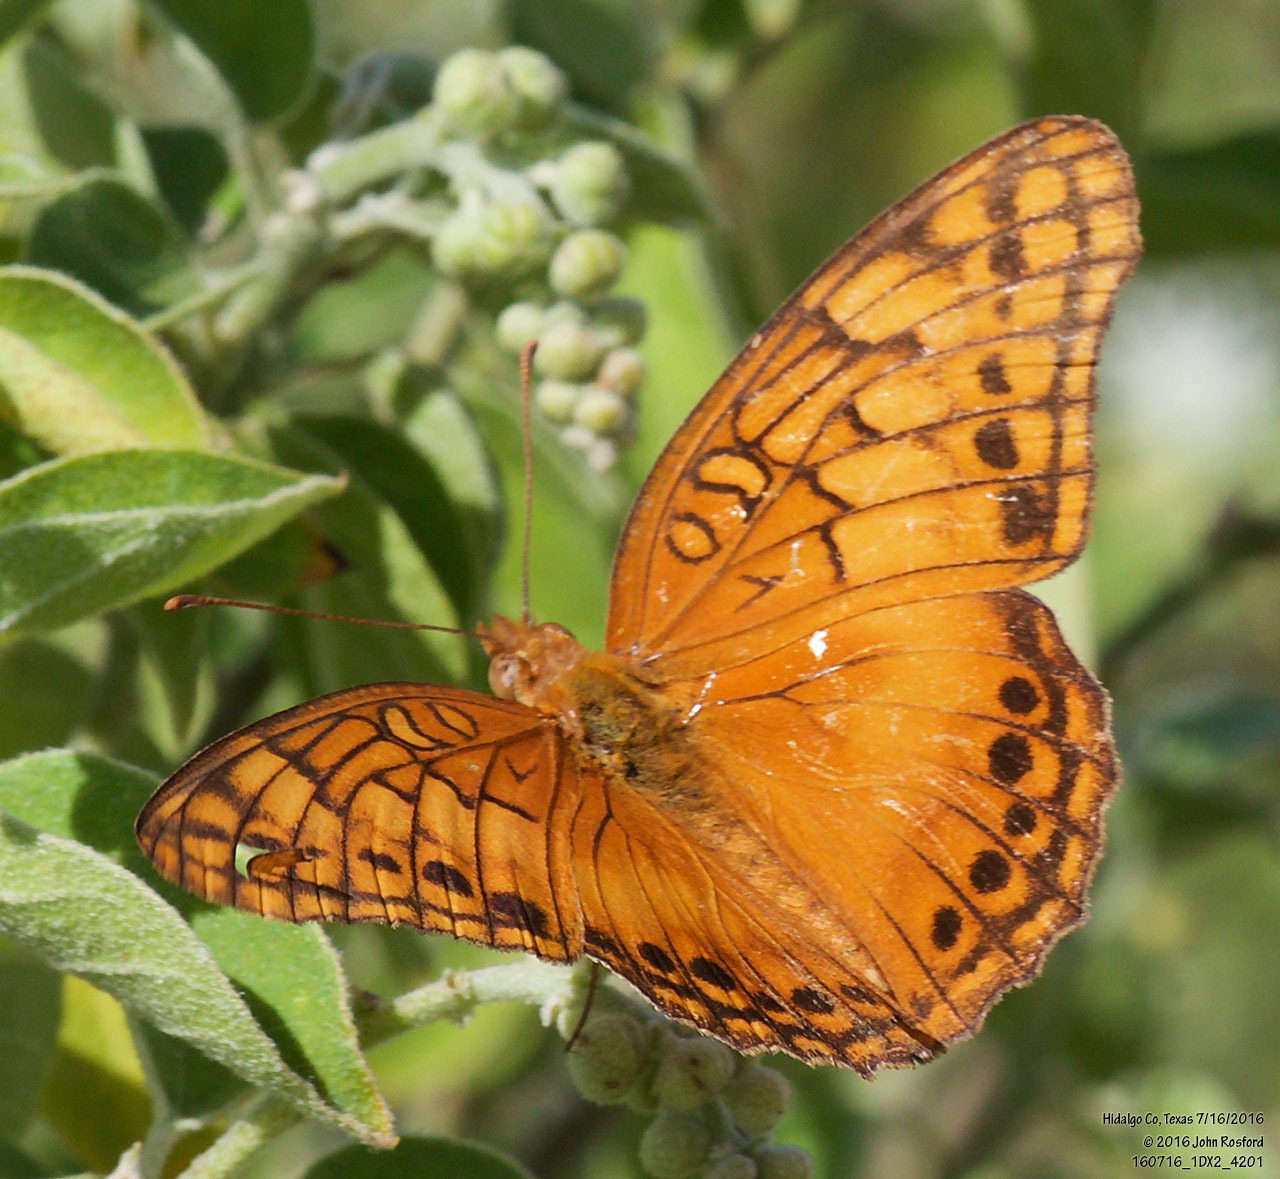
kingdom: Animalia
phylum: Arthropoda
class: Insecta
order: Lepidoptera
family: Nymphalidae
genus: Euptoieta
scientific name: Euptoieta hegesia
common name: Mexican fritillary
